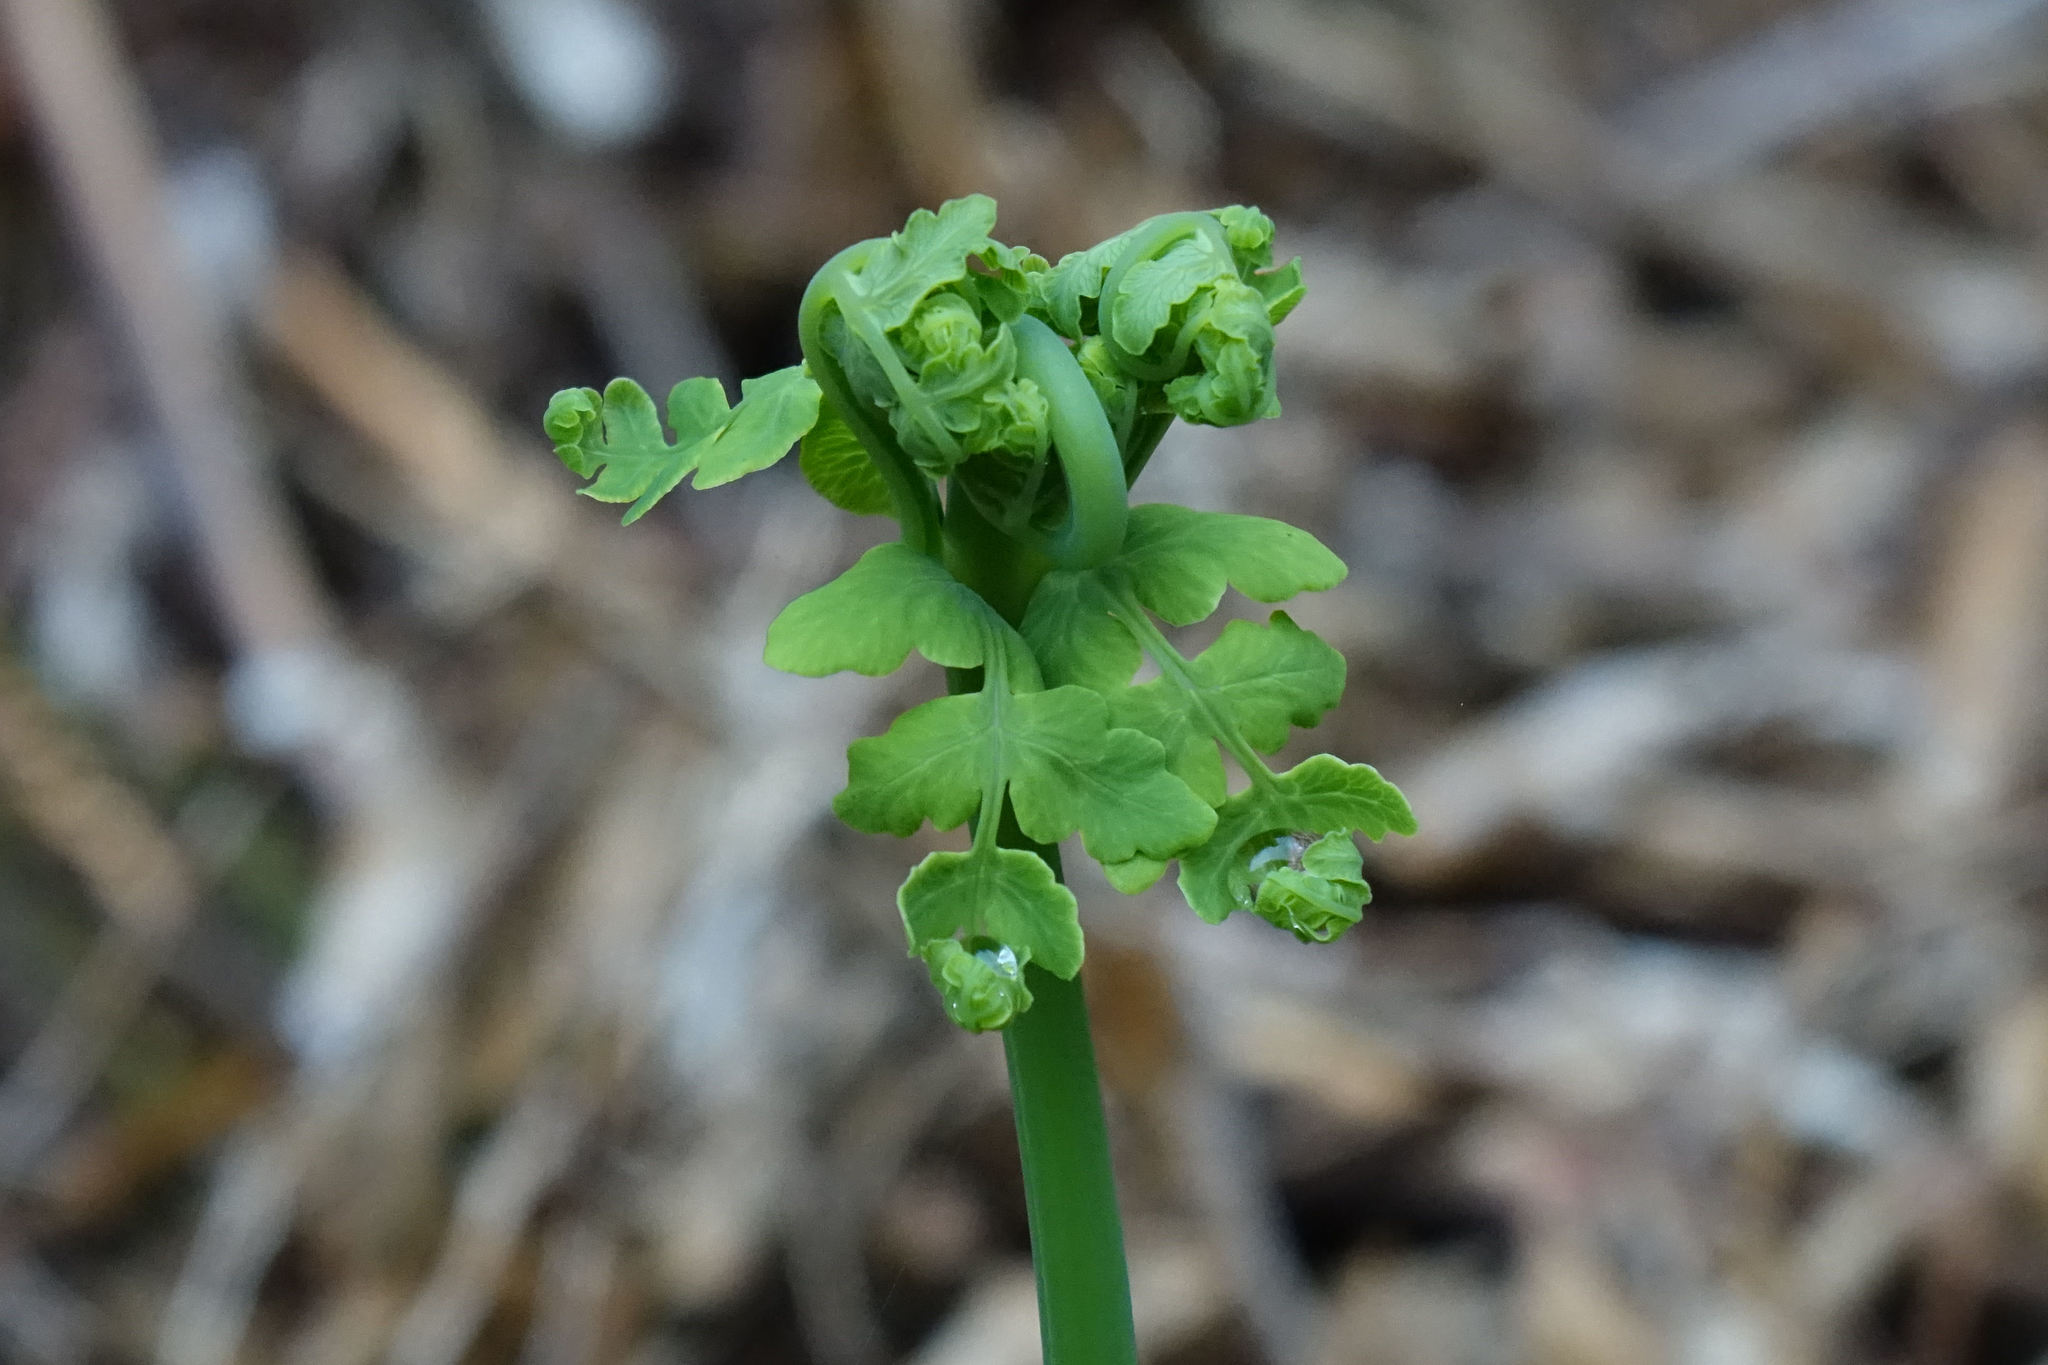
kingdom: Plantae
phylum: Tracheophyta
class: Polypodiopsida
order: Polypodiales
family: Dennstaedtiaceae
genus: Histiopteris
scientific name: Histiopteris incisa
